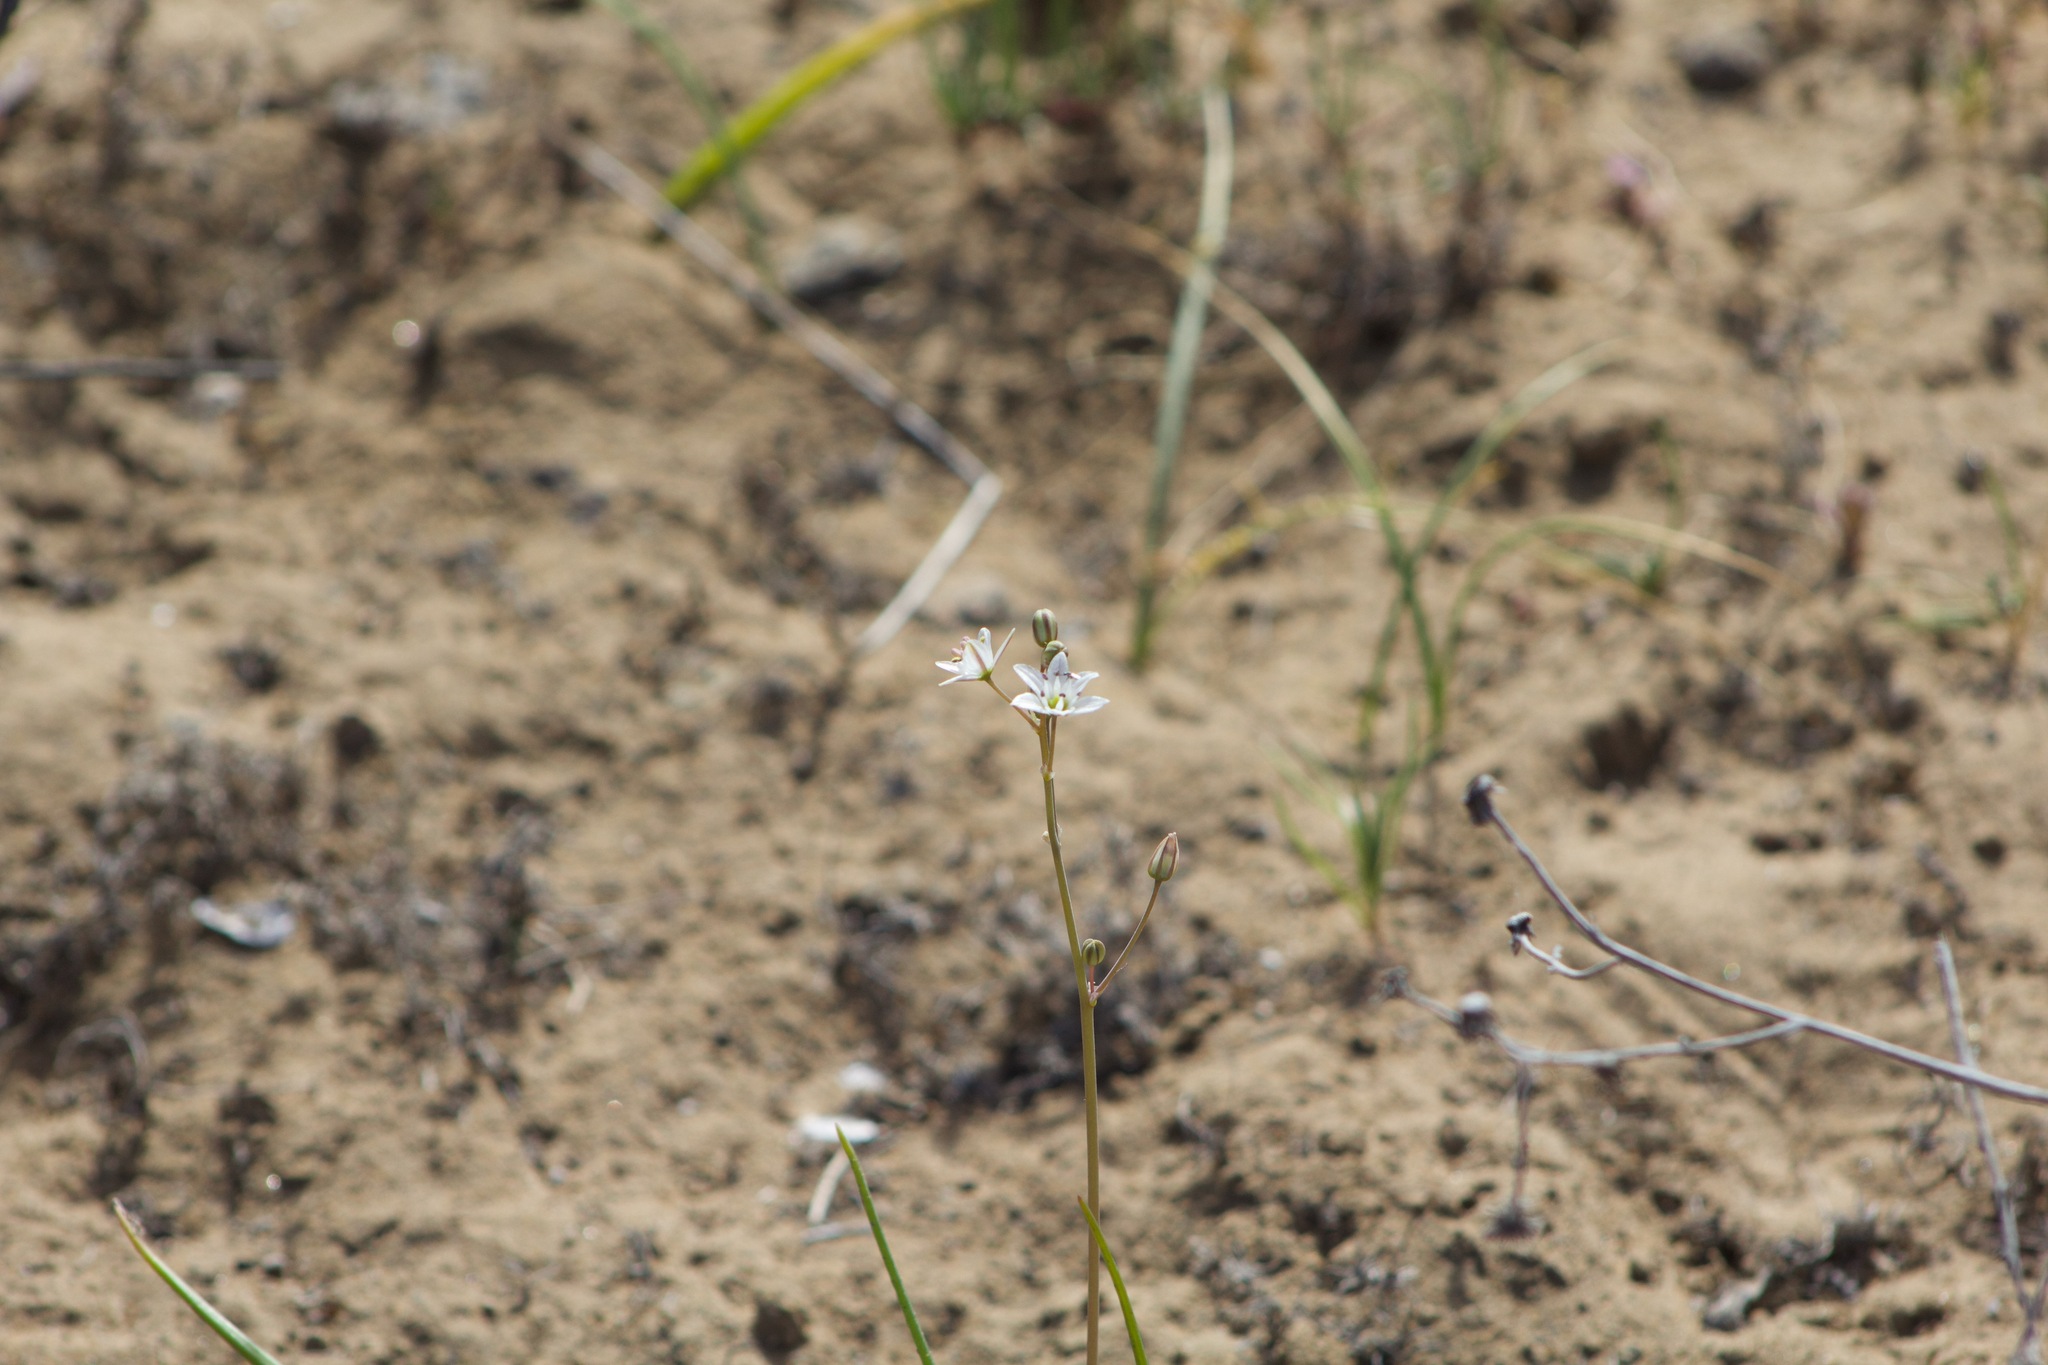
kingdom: Plantae
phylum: Tracheophyta
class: Liliopsida
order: Asparagales
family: Asparagaceae
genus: Oziroe
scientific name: Oziroe biflora
